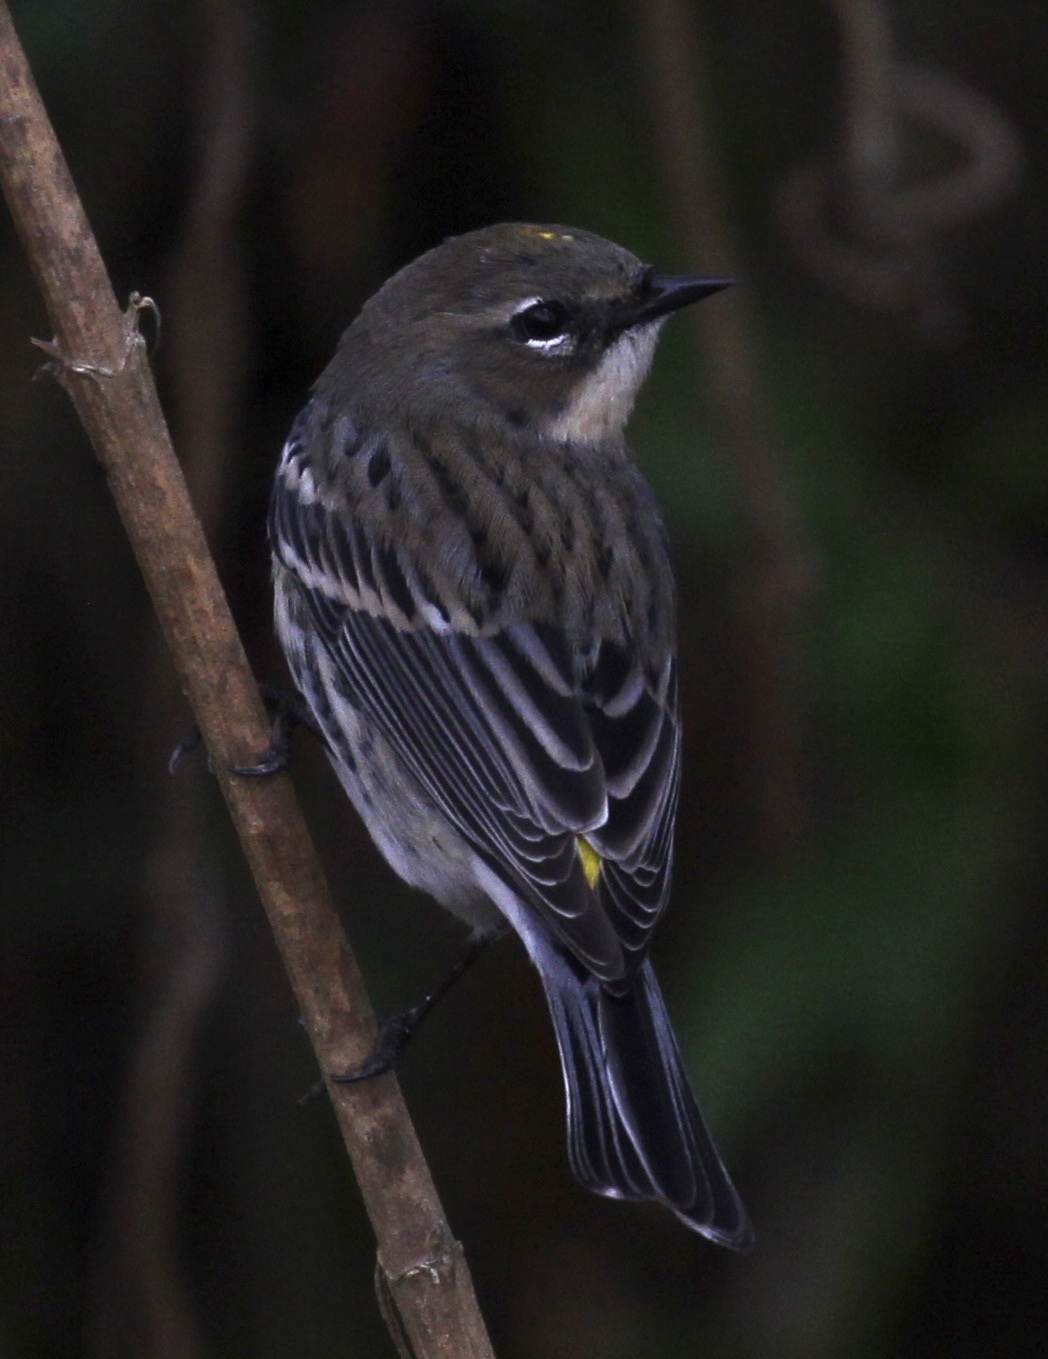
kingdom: Animalia
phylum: Chordata
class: Aves
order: Passeriformes
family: Parulidae
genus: Setophaga
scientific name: Setophaga coronata
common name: Myrtle warbler
